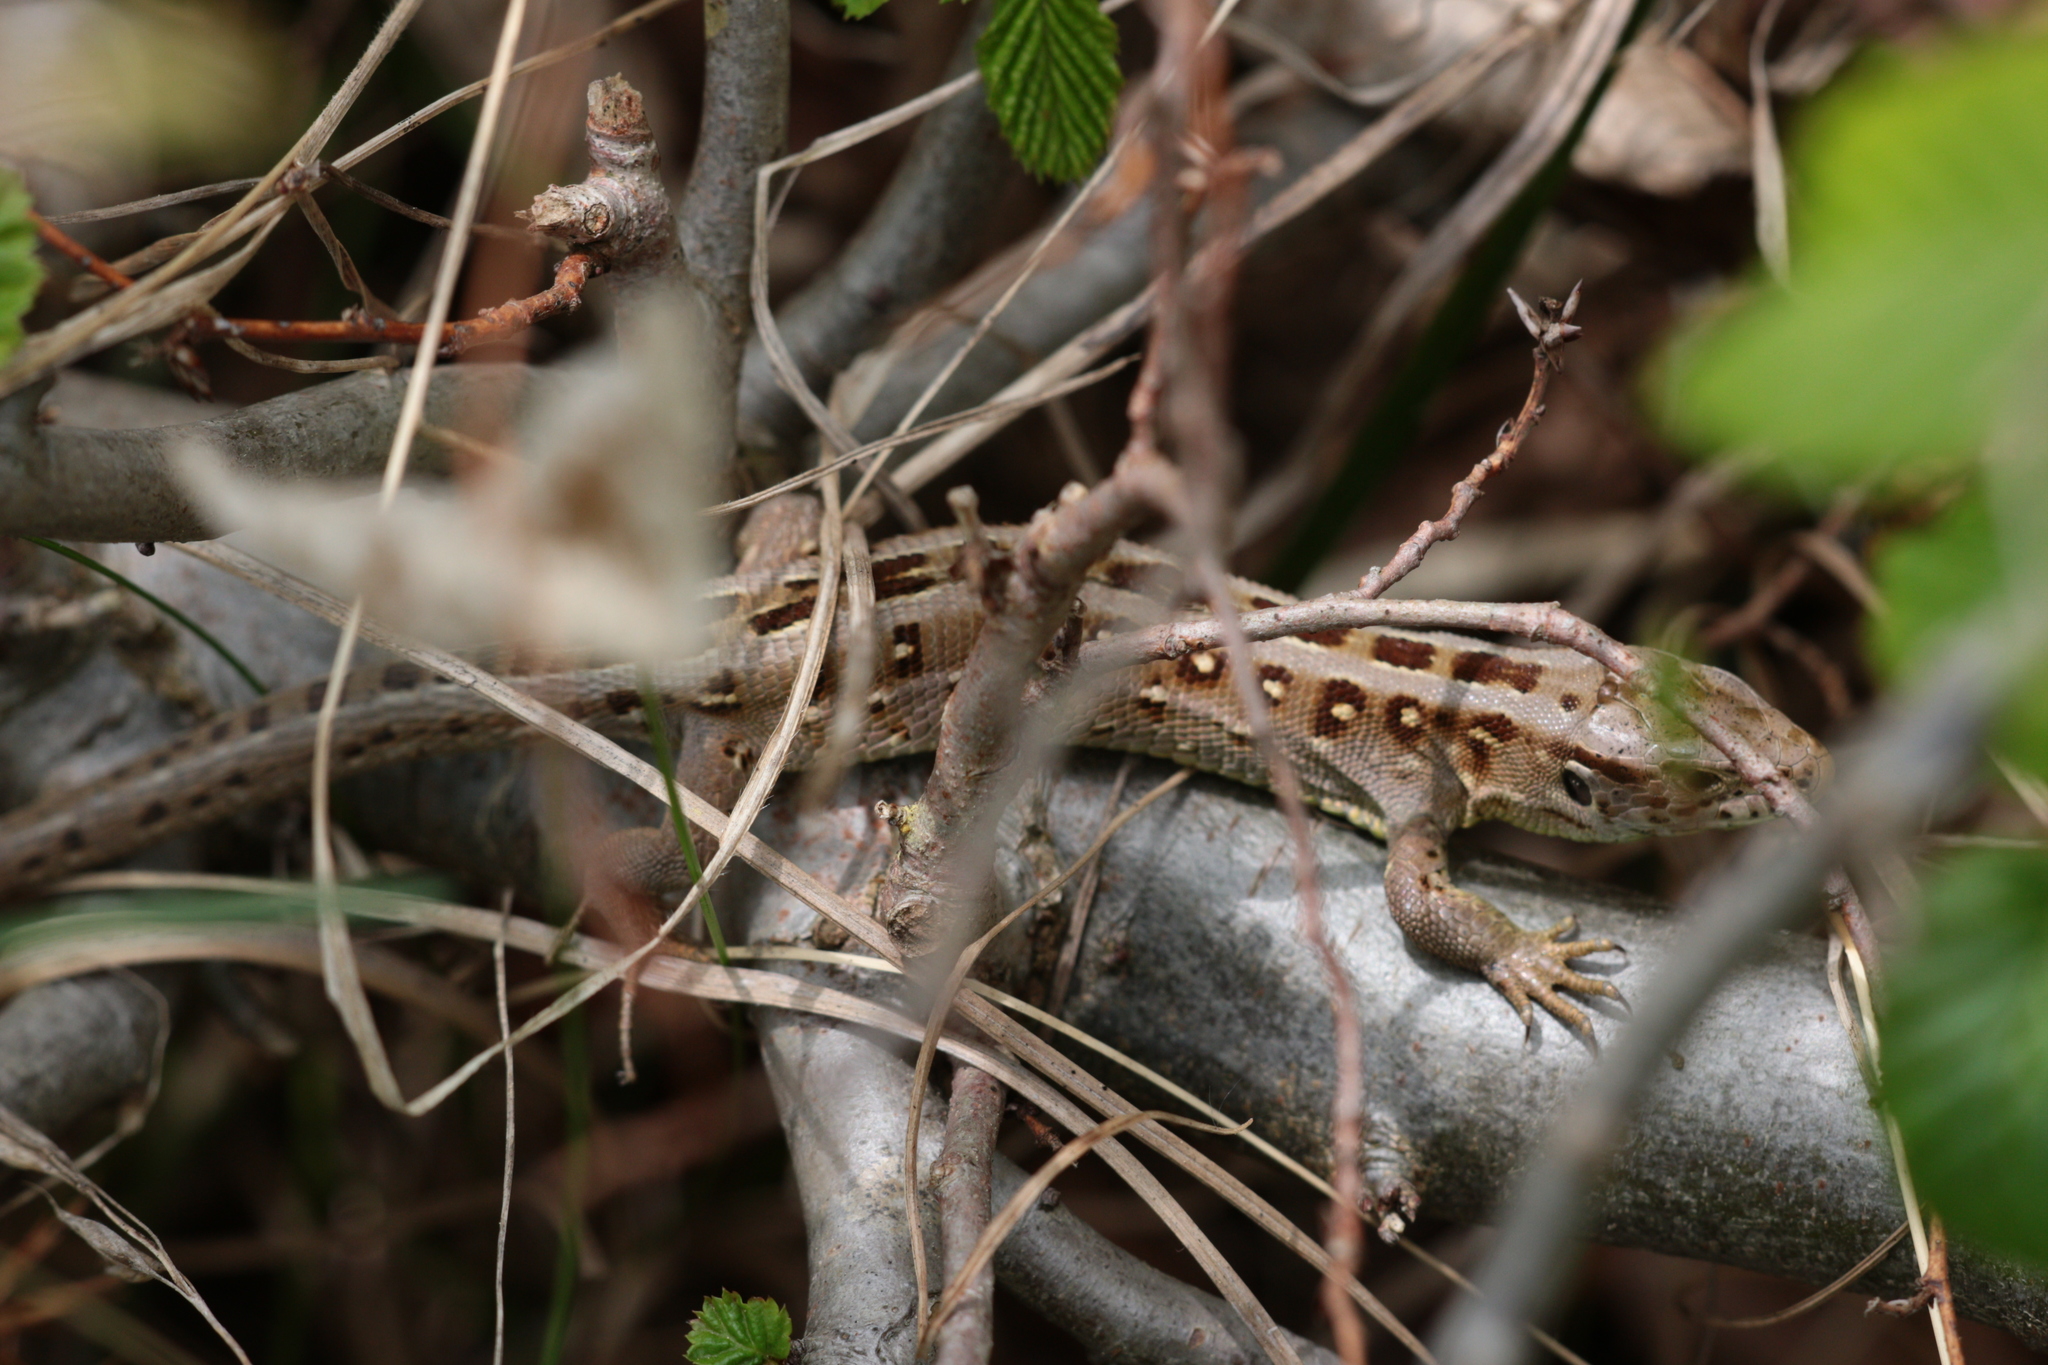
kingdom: Animalia
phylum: Chordata
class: Squamata
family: Lacertidae
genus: Lacerta
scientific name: Lacerta agilis
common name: Sand lizard
